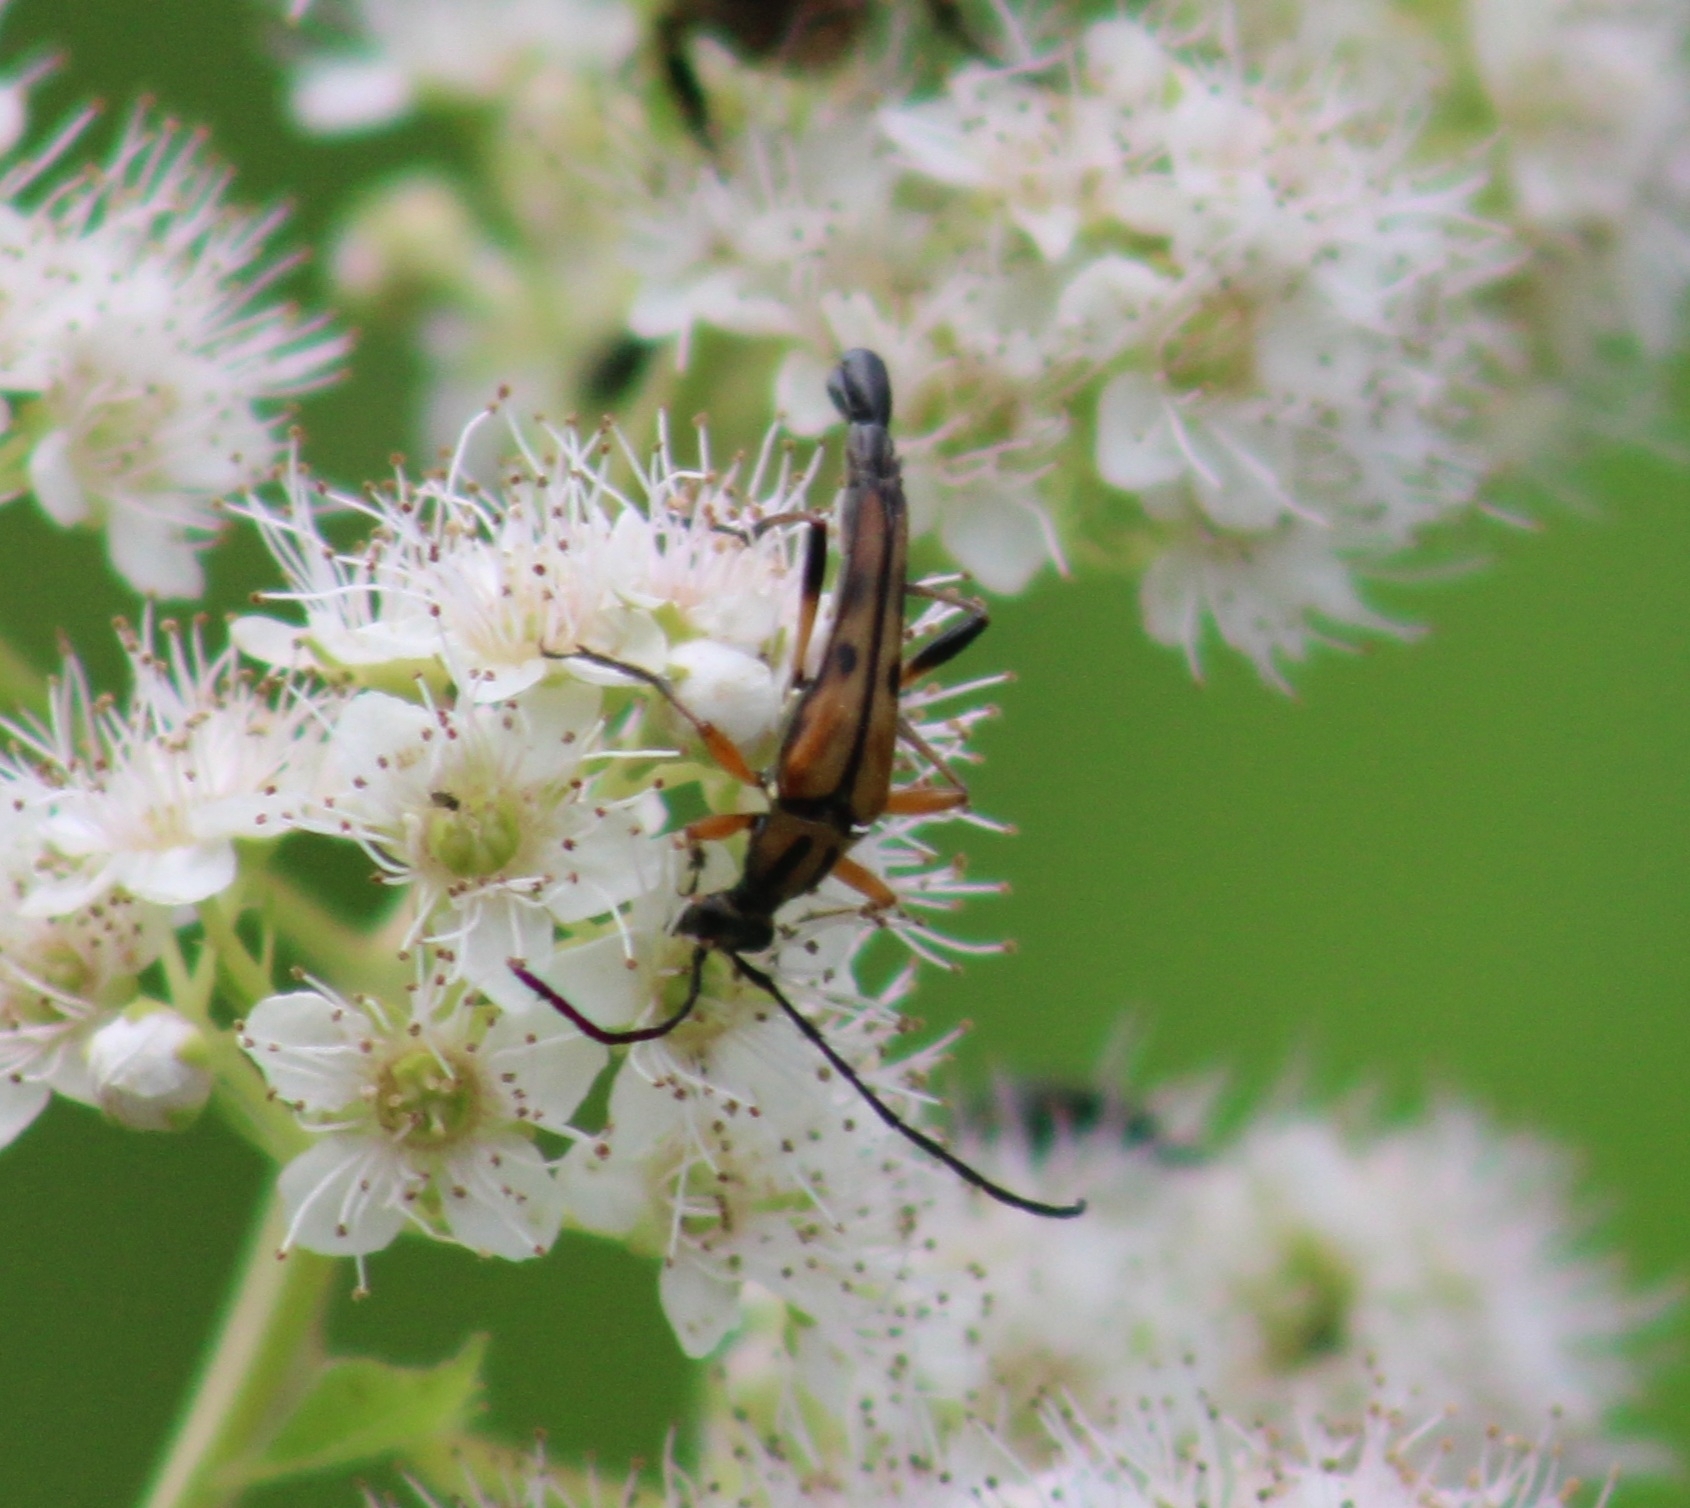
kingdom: Animalia
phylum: Arthropoda
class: Insecta
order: Coleoptera
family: Cerambycidae
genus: Strangalia
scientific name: Strangalia famelica
